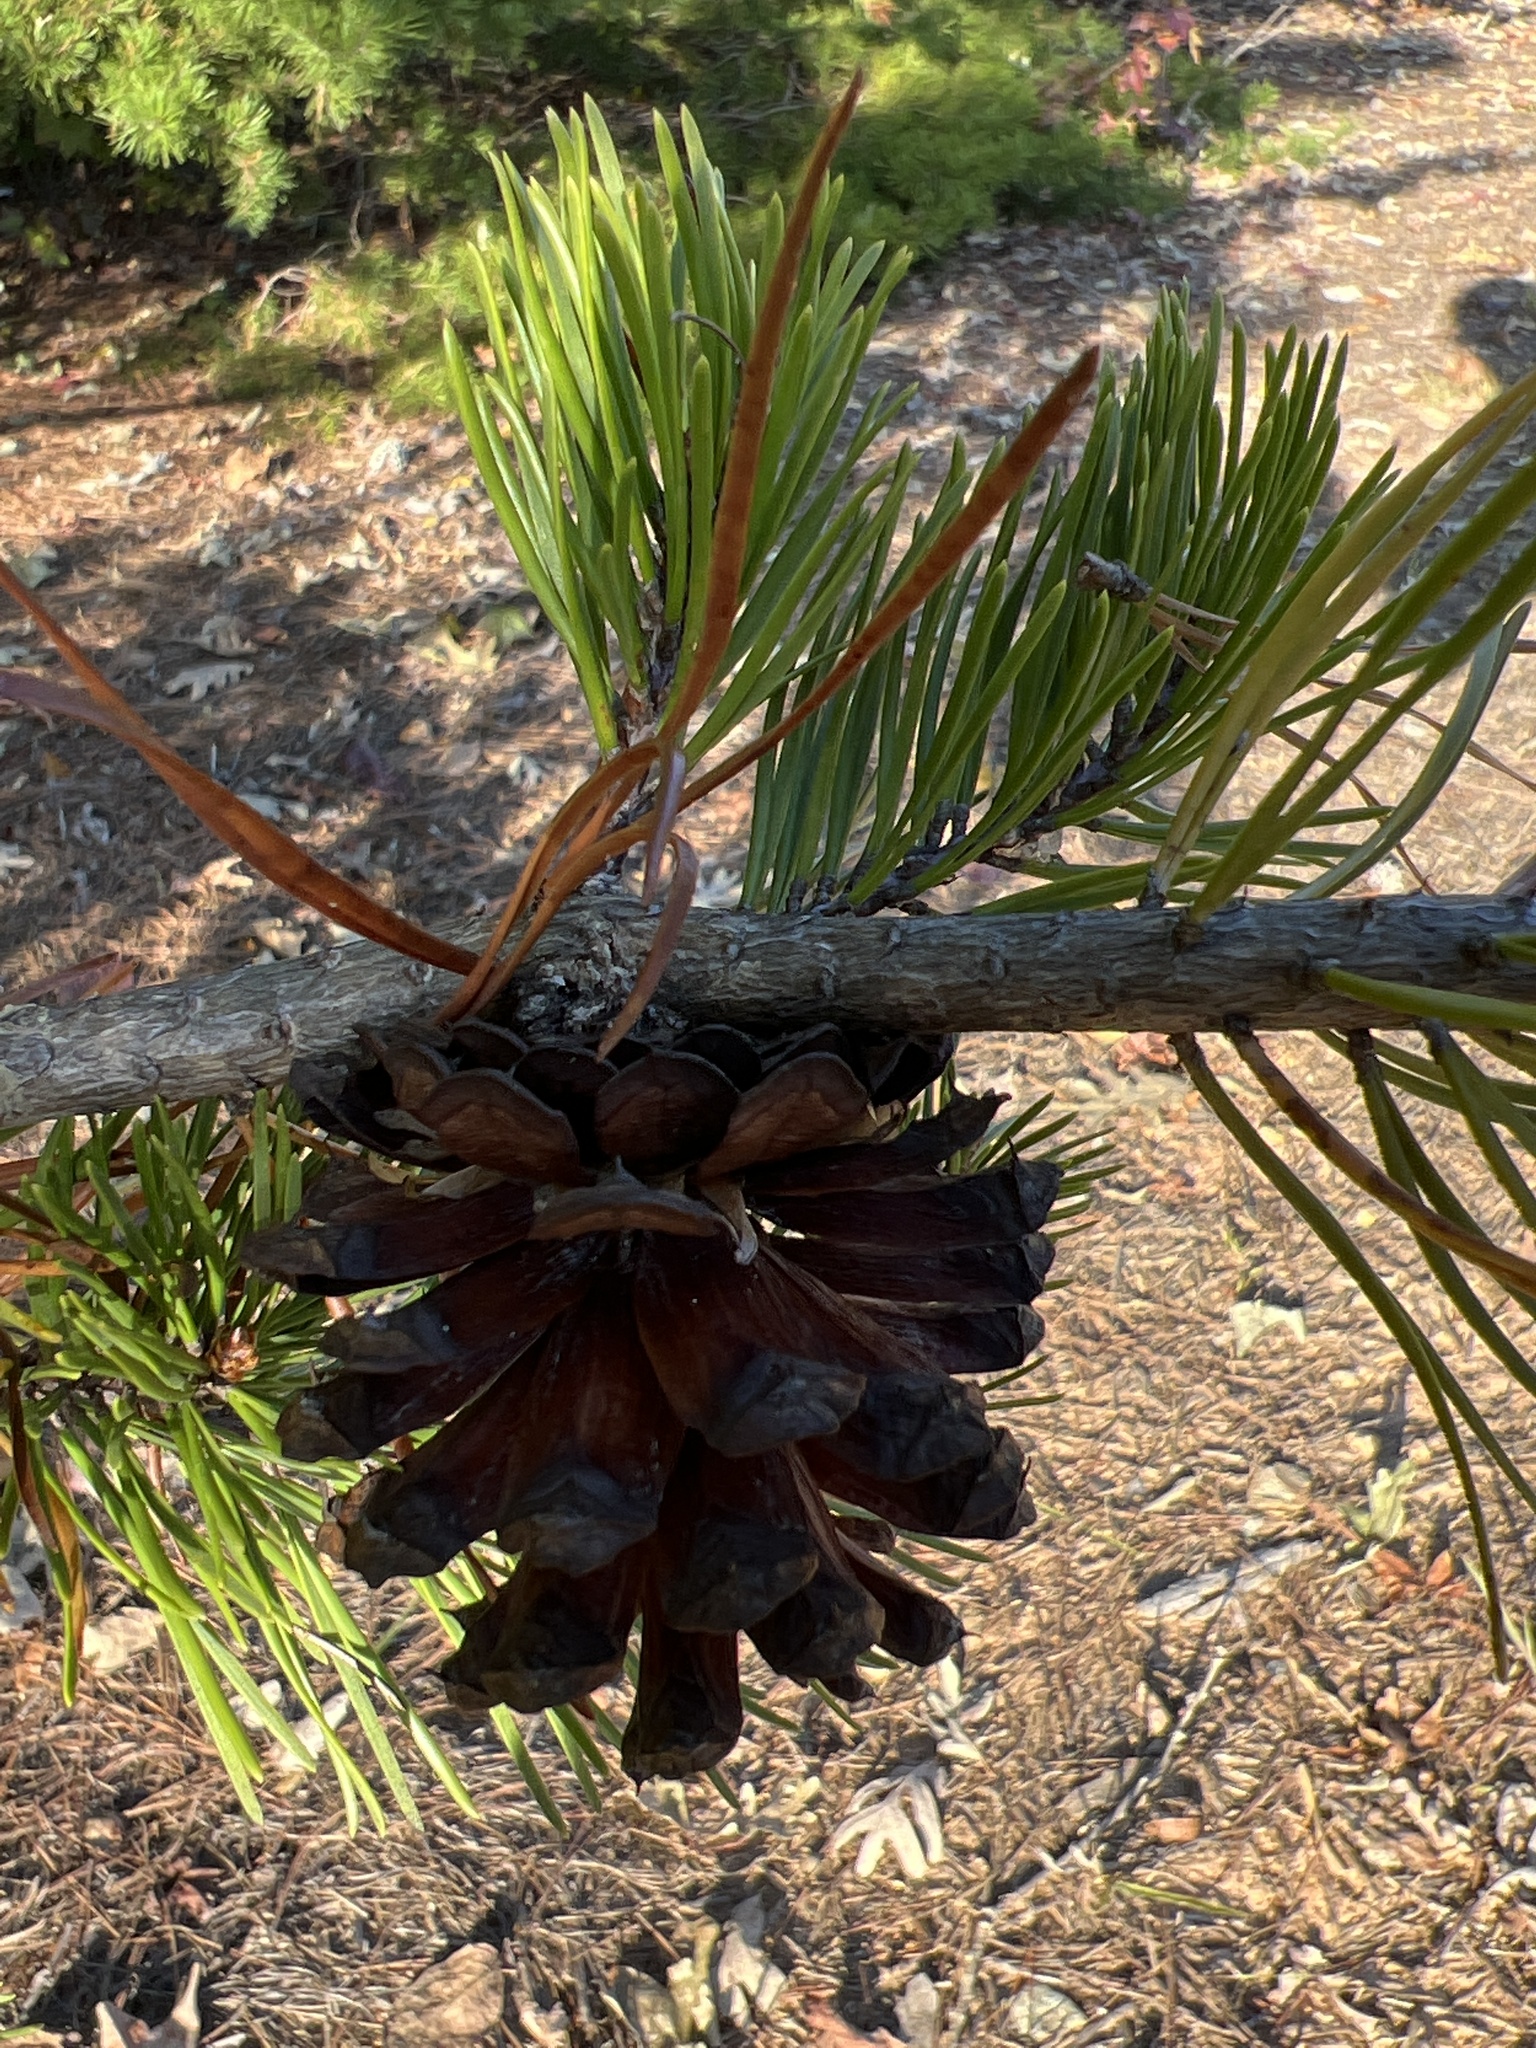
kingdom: Plantae
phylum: Tracheophyta
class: Pinopsida
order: Pinales
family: Pinaceae
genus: Pinus
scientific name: Pinus virginiana
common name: Scrub pine
